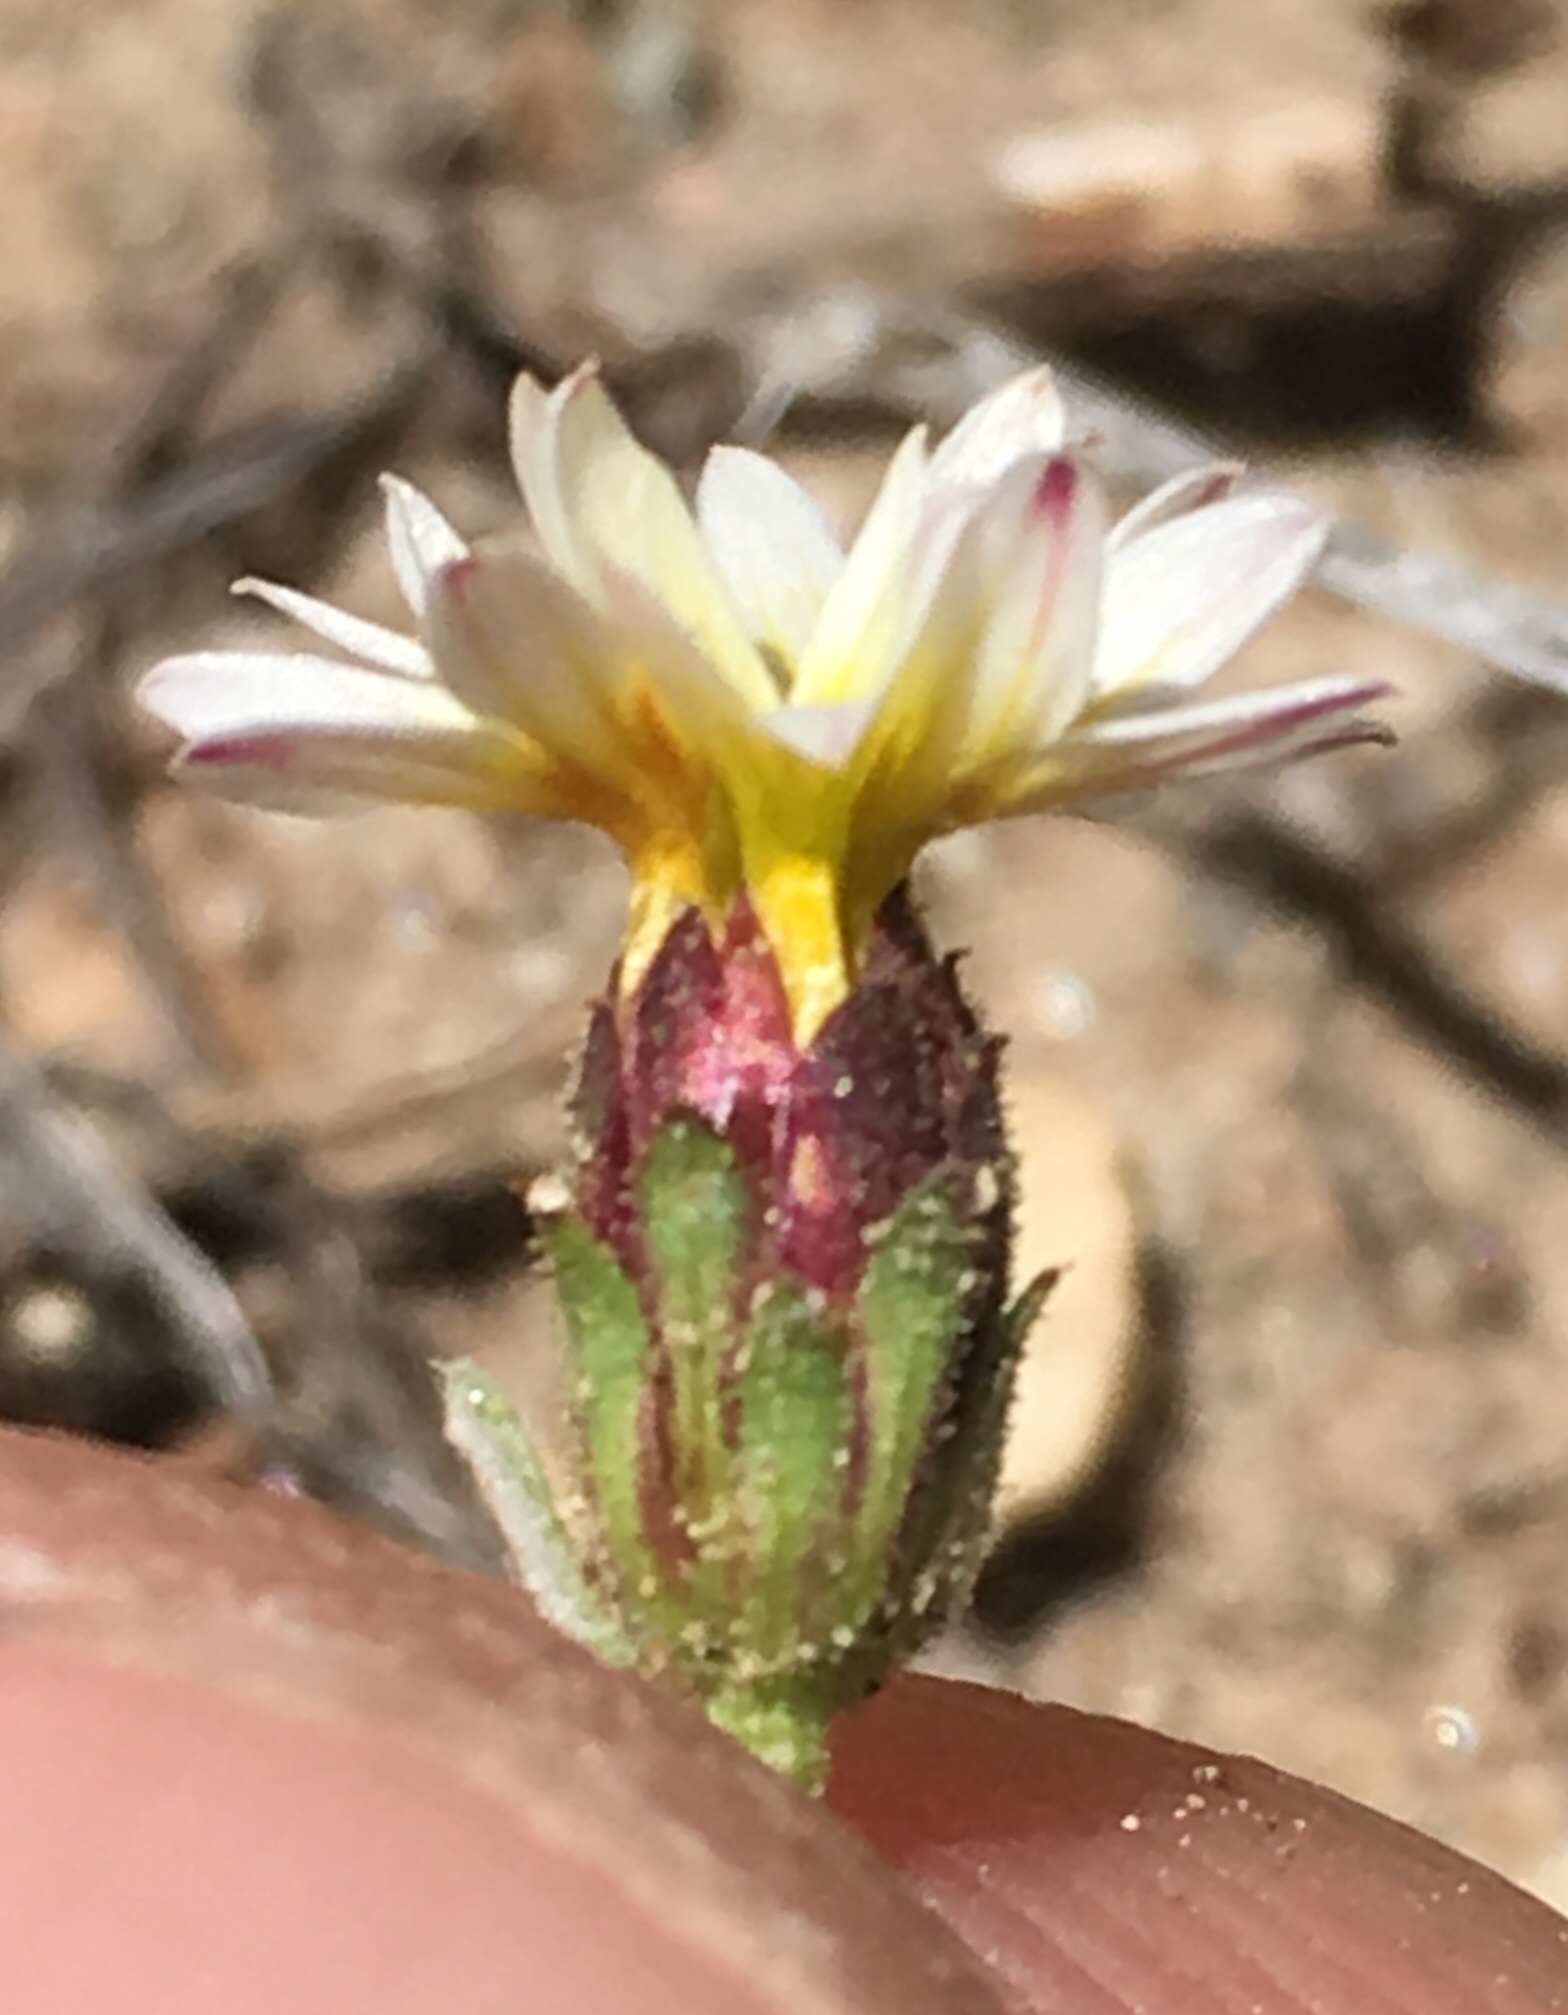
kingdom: Plantae
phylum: Tracheophyta
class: Magnoliopsida
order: Asterales
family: Asteraceae
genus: Lessingia
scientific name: Lessingia tenuis
